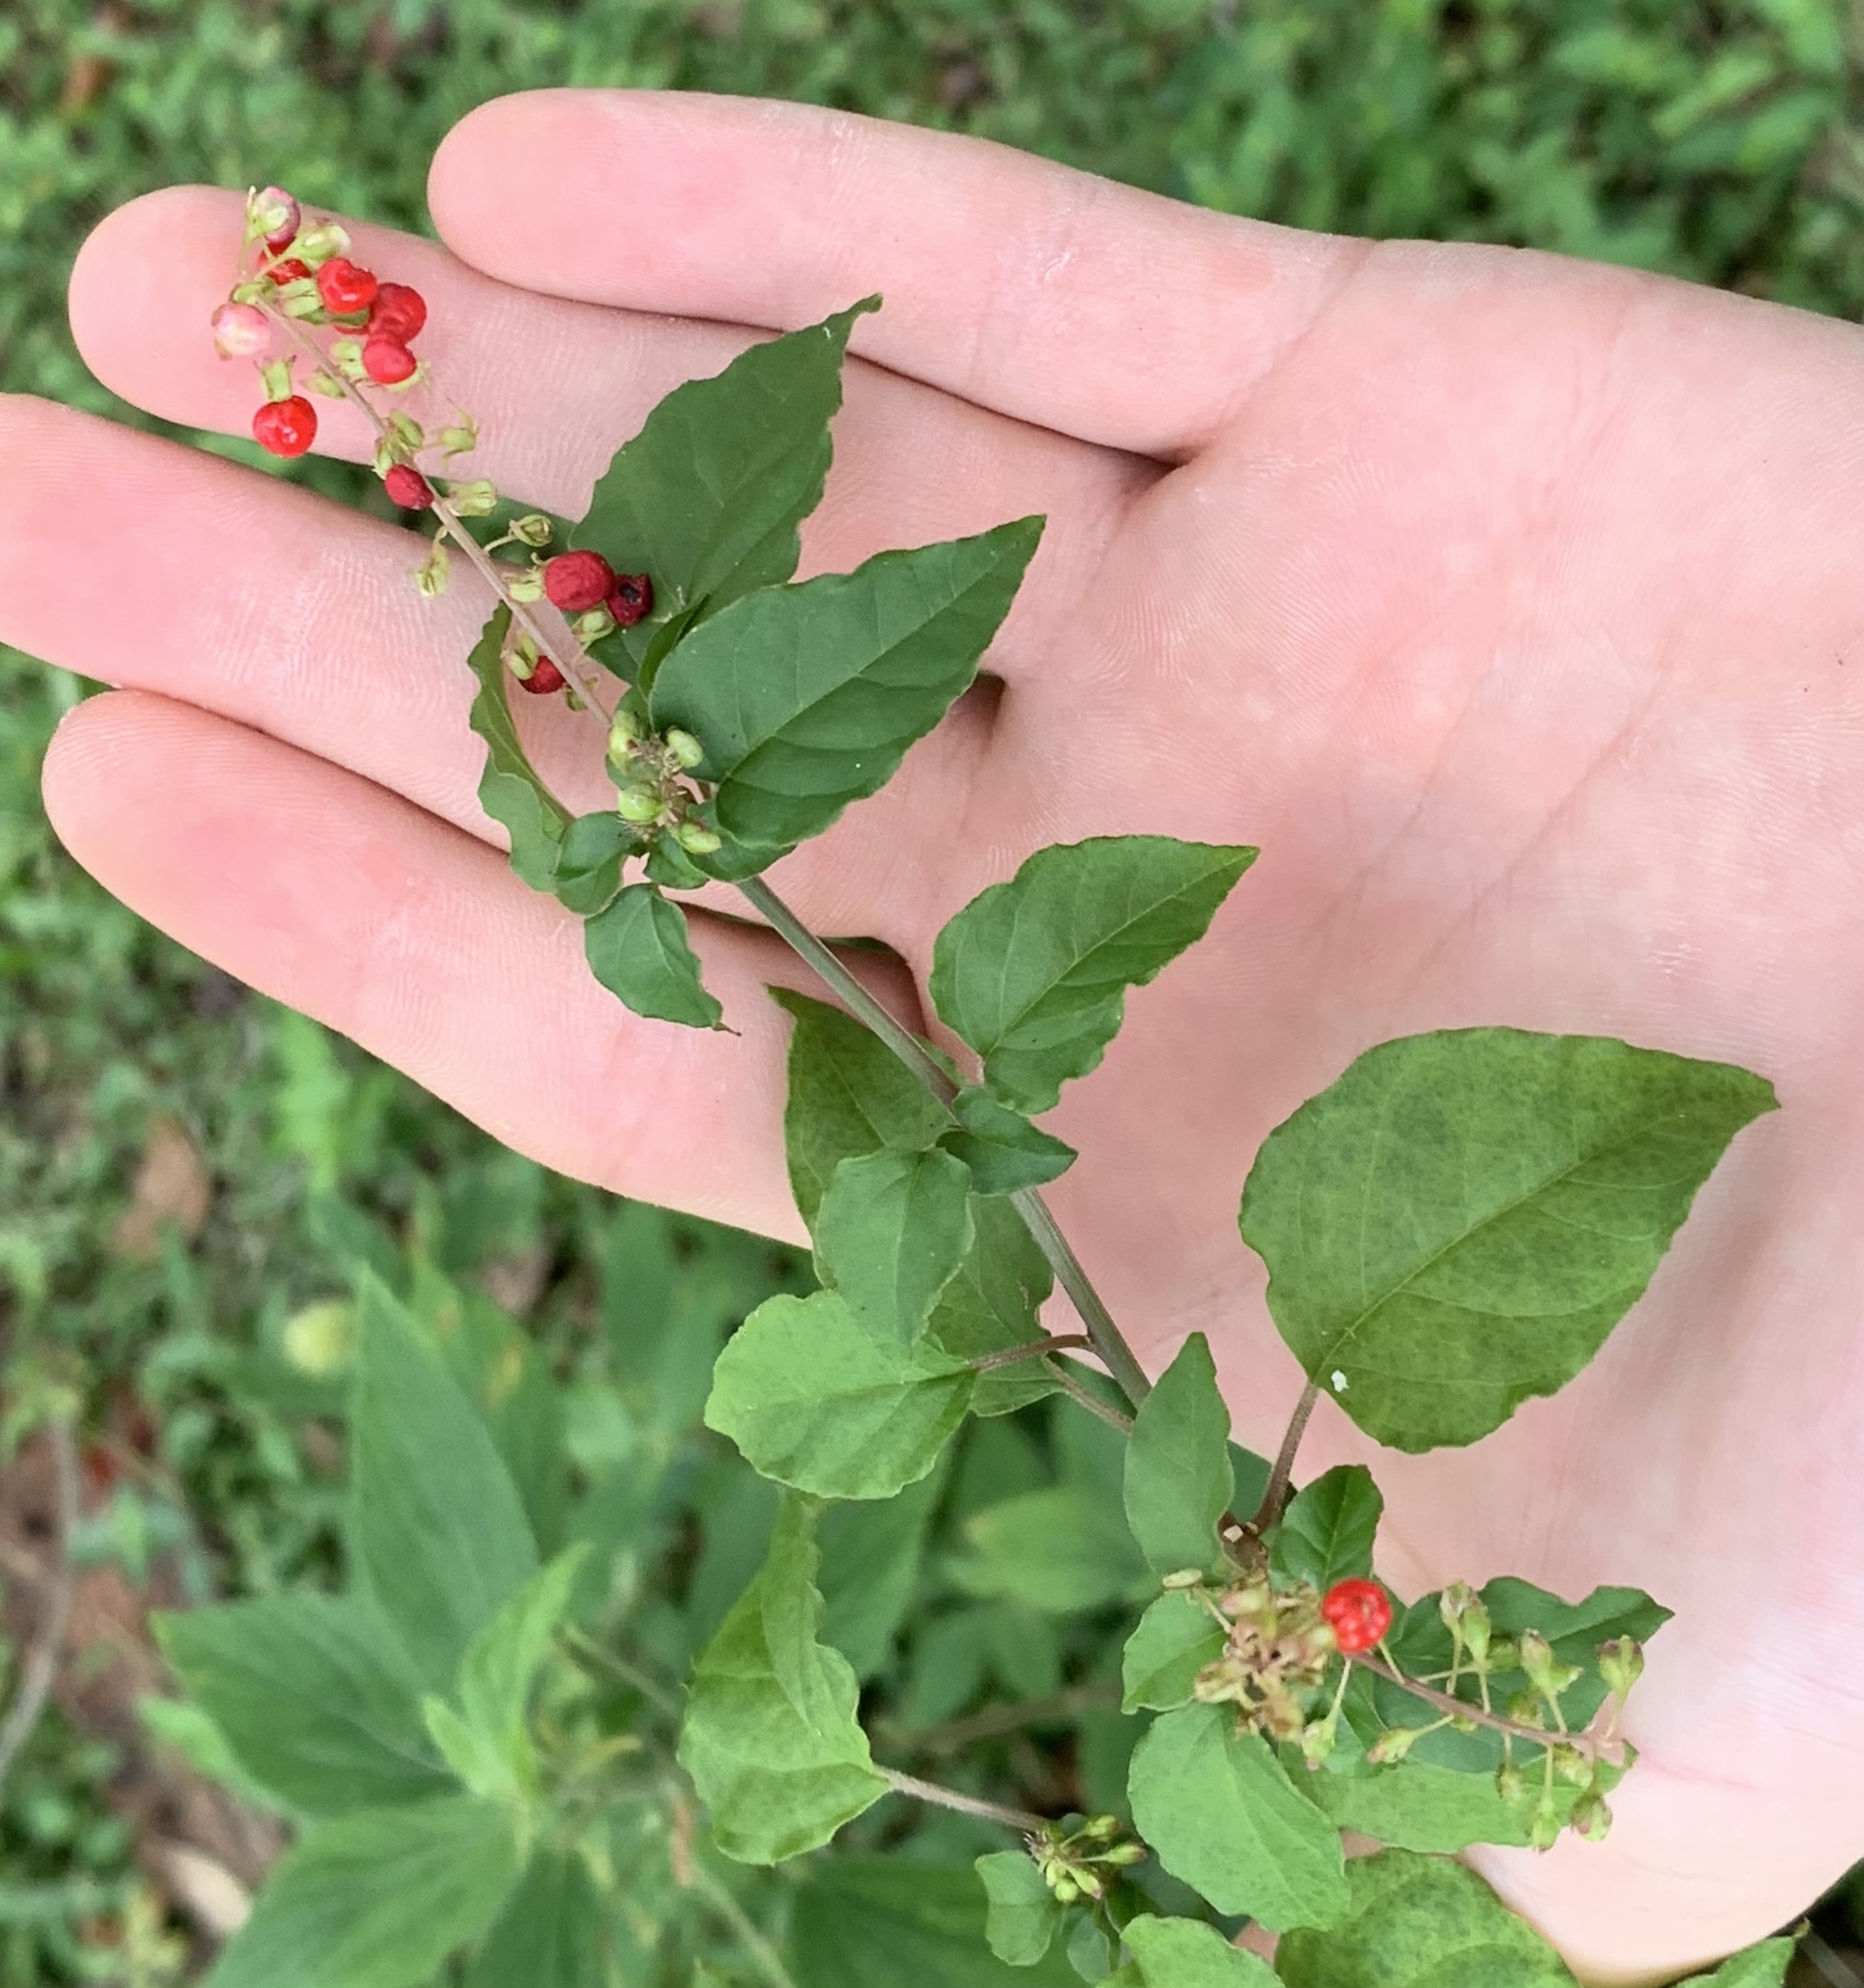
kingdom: Plantae
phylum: Tracheophyta
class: Magnoliopsida
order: Caryophyllales
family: Phytolaccaceae
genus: Rivina
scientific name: Rivina humilis
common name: Rougeplant
